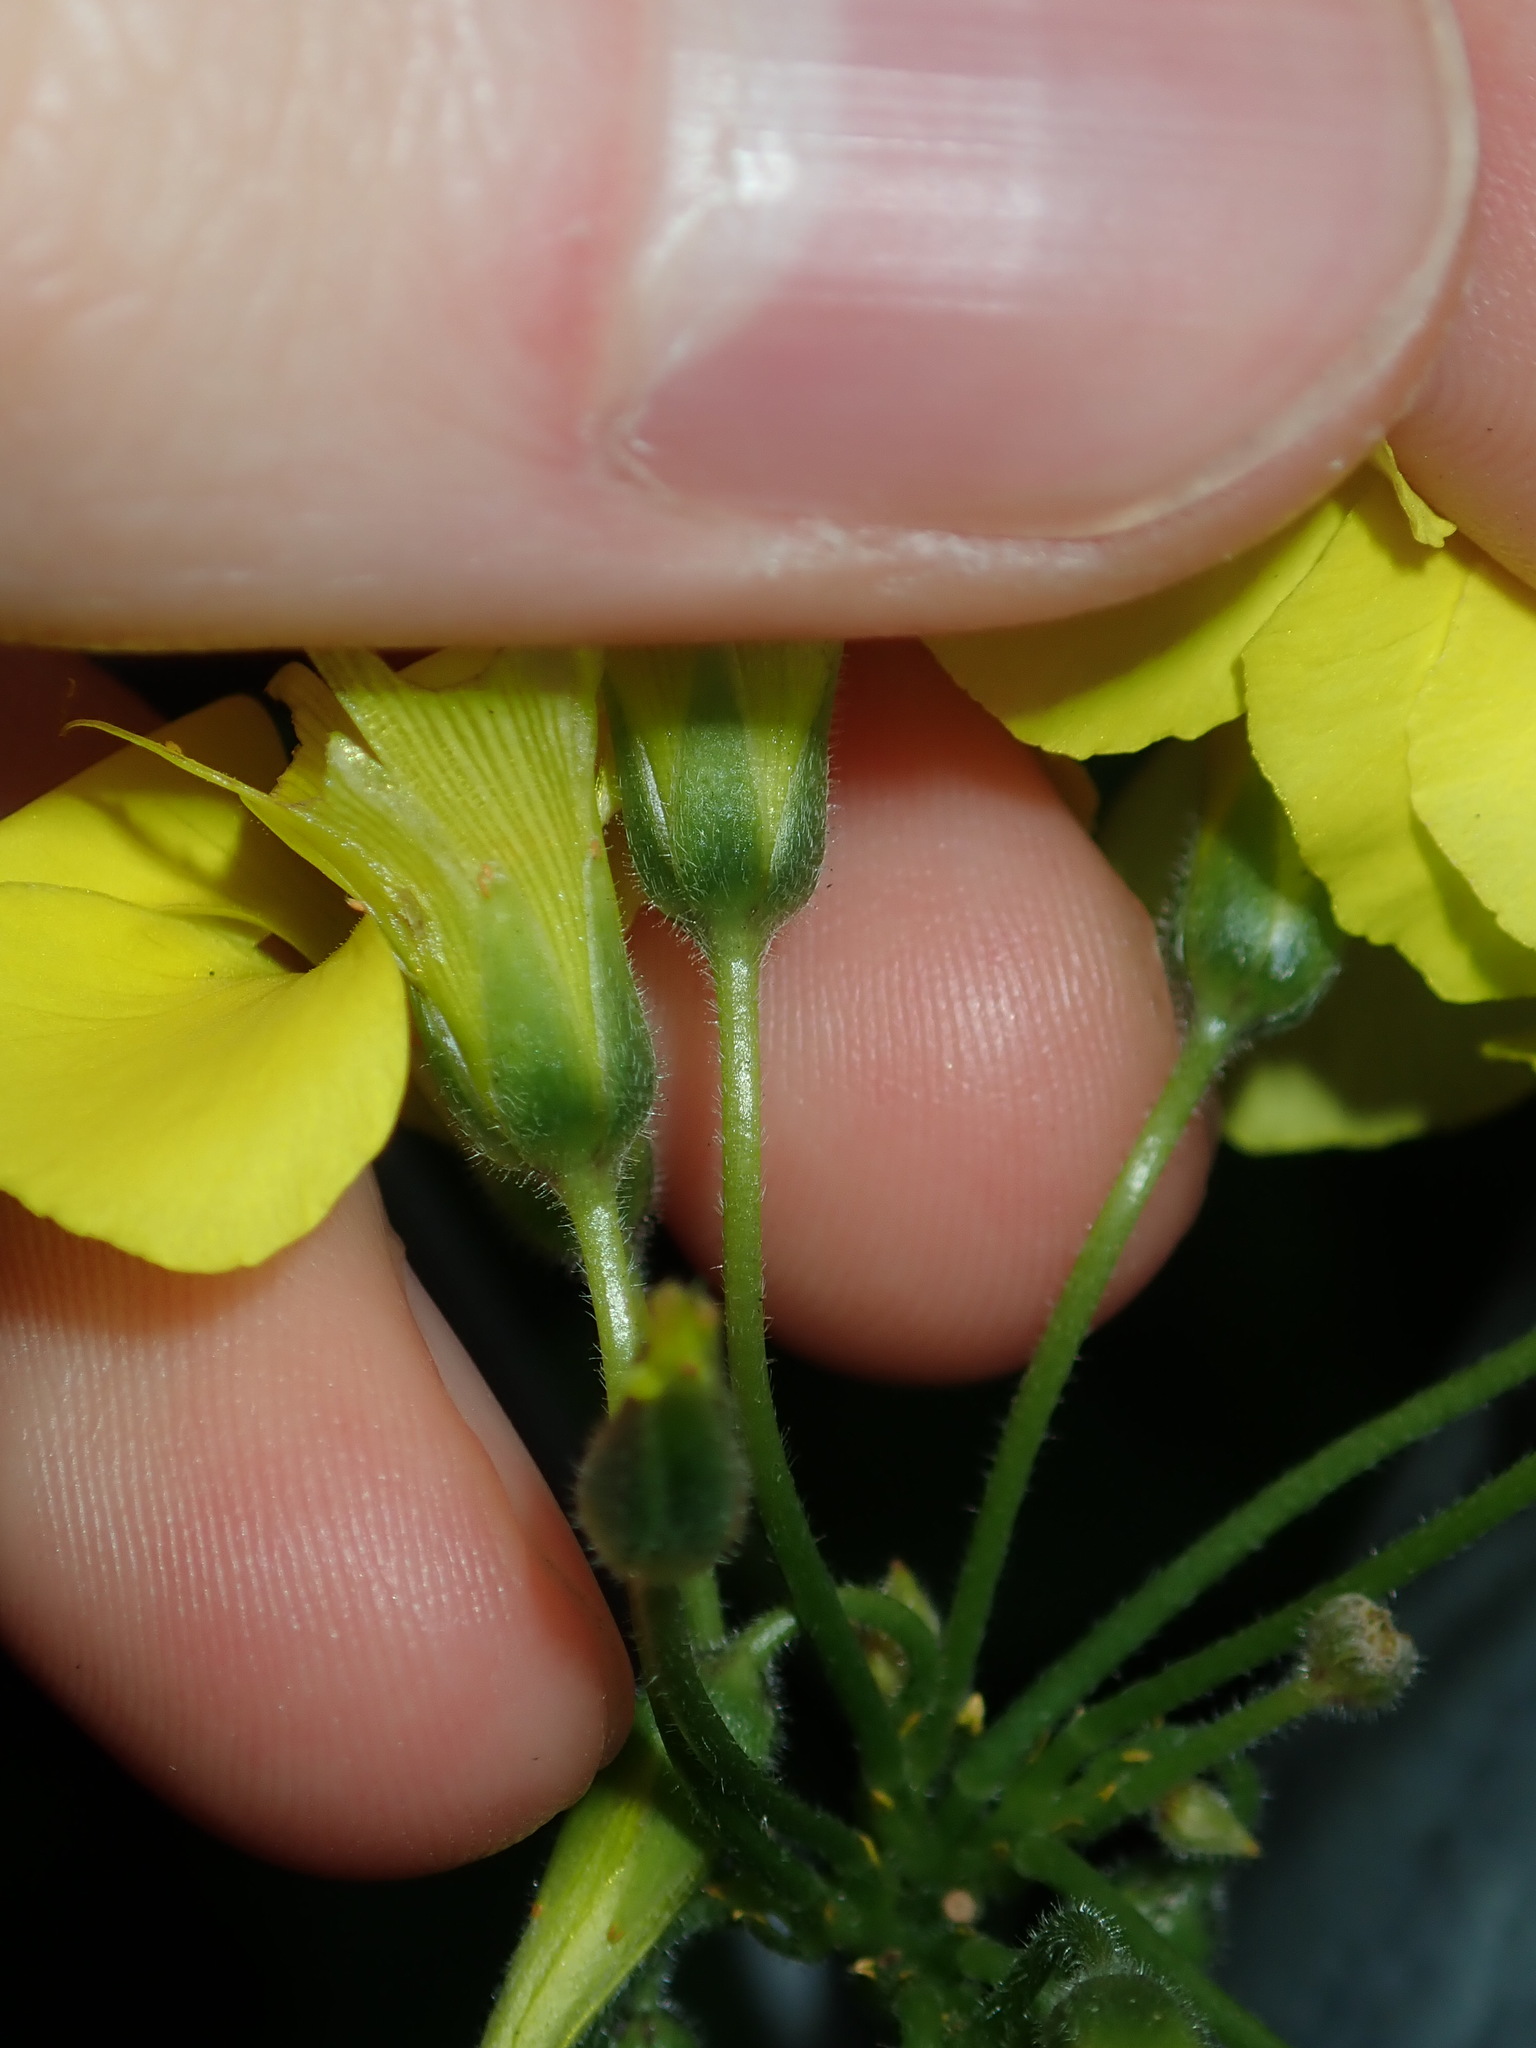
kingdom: Plantae
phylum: Tracheophyta
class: Magnoliopsida
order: Oxalidales
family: Oxalidaceae
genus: Oxalis
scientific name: Oxalis pes-caprae
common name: Bermuda-buttercup
